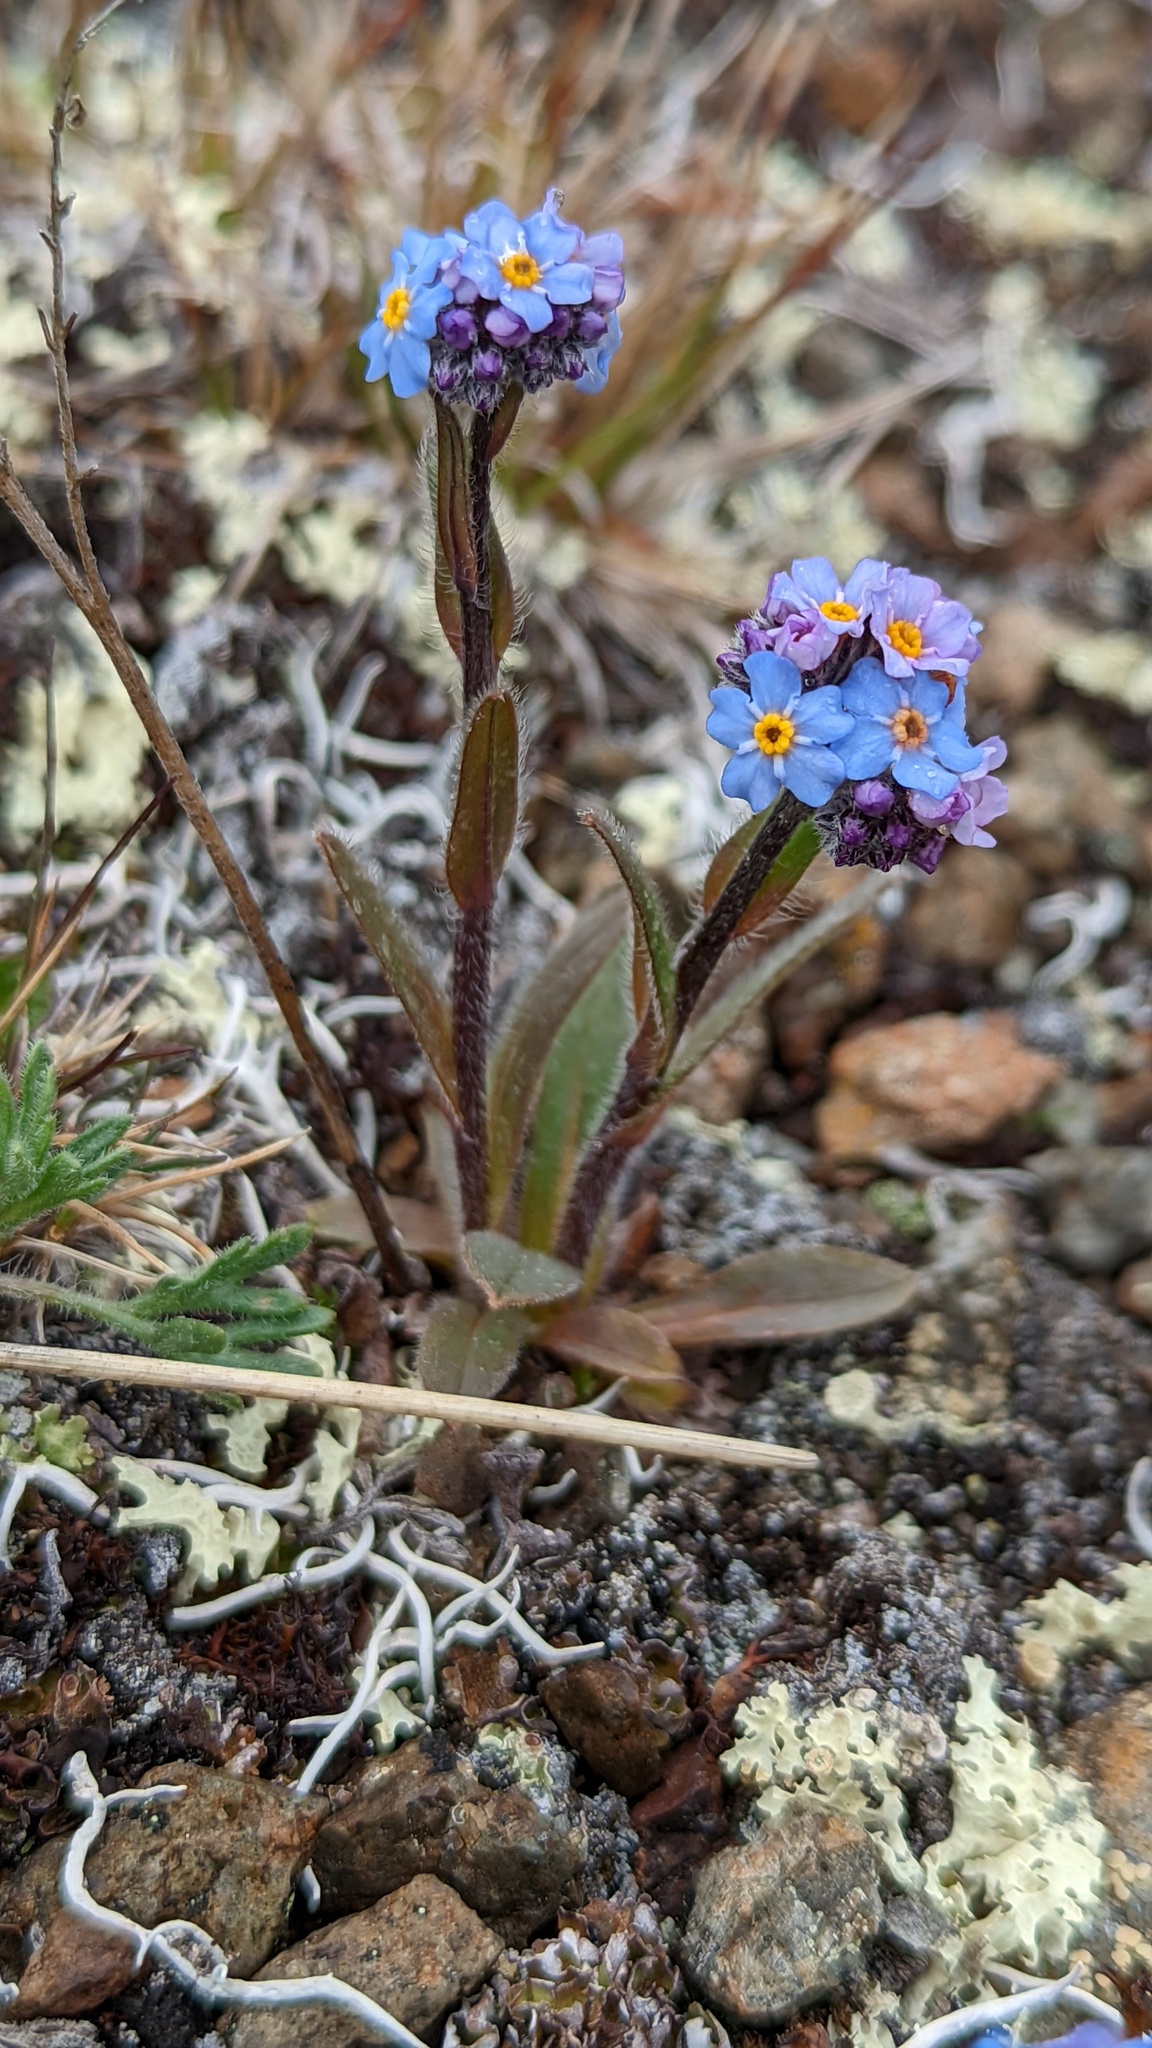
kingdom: Plantae
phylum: Tracheophyta
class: Magnoliopsida
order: Boraginales
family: Boraginaceae
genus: Myosotis
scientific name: Myosotis asiatica
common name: Asian forget-me-not
